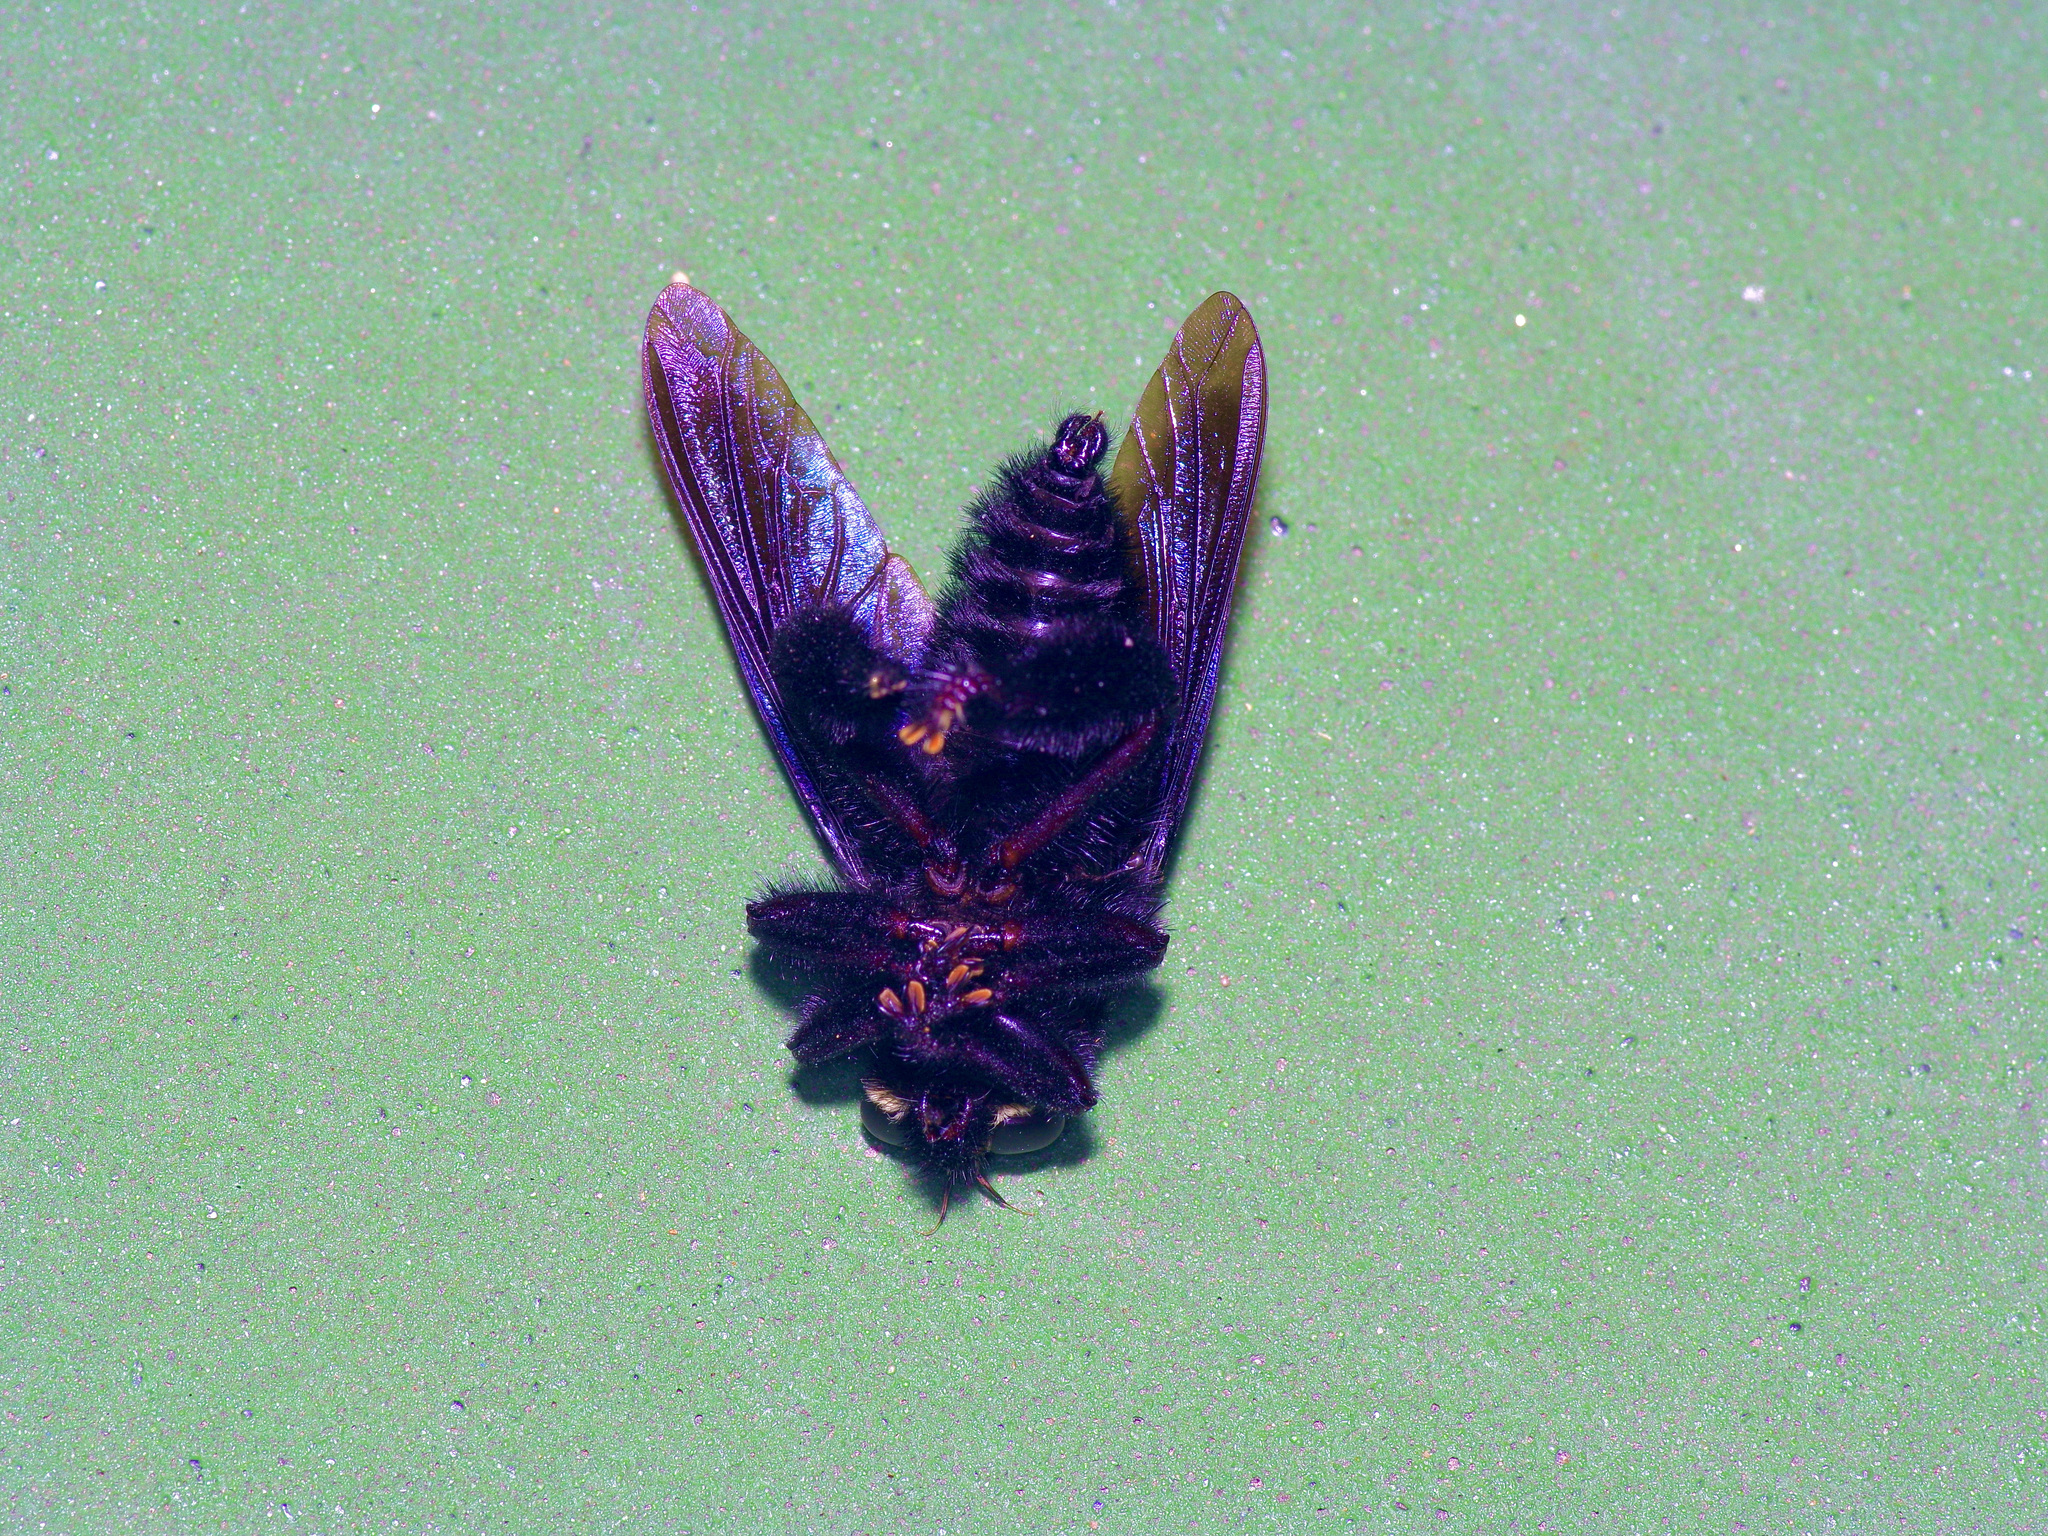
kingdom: Animalia
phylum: Arthropoda
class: Insecta
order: Diptera
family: Asilidae
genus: Mallophora
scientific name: Mallophora leschenaultii
